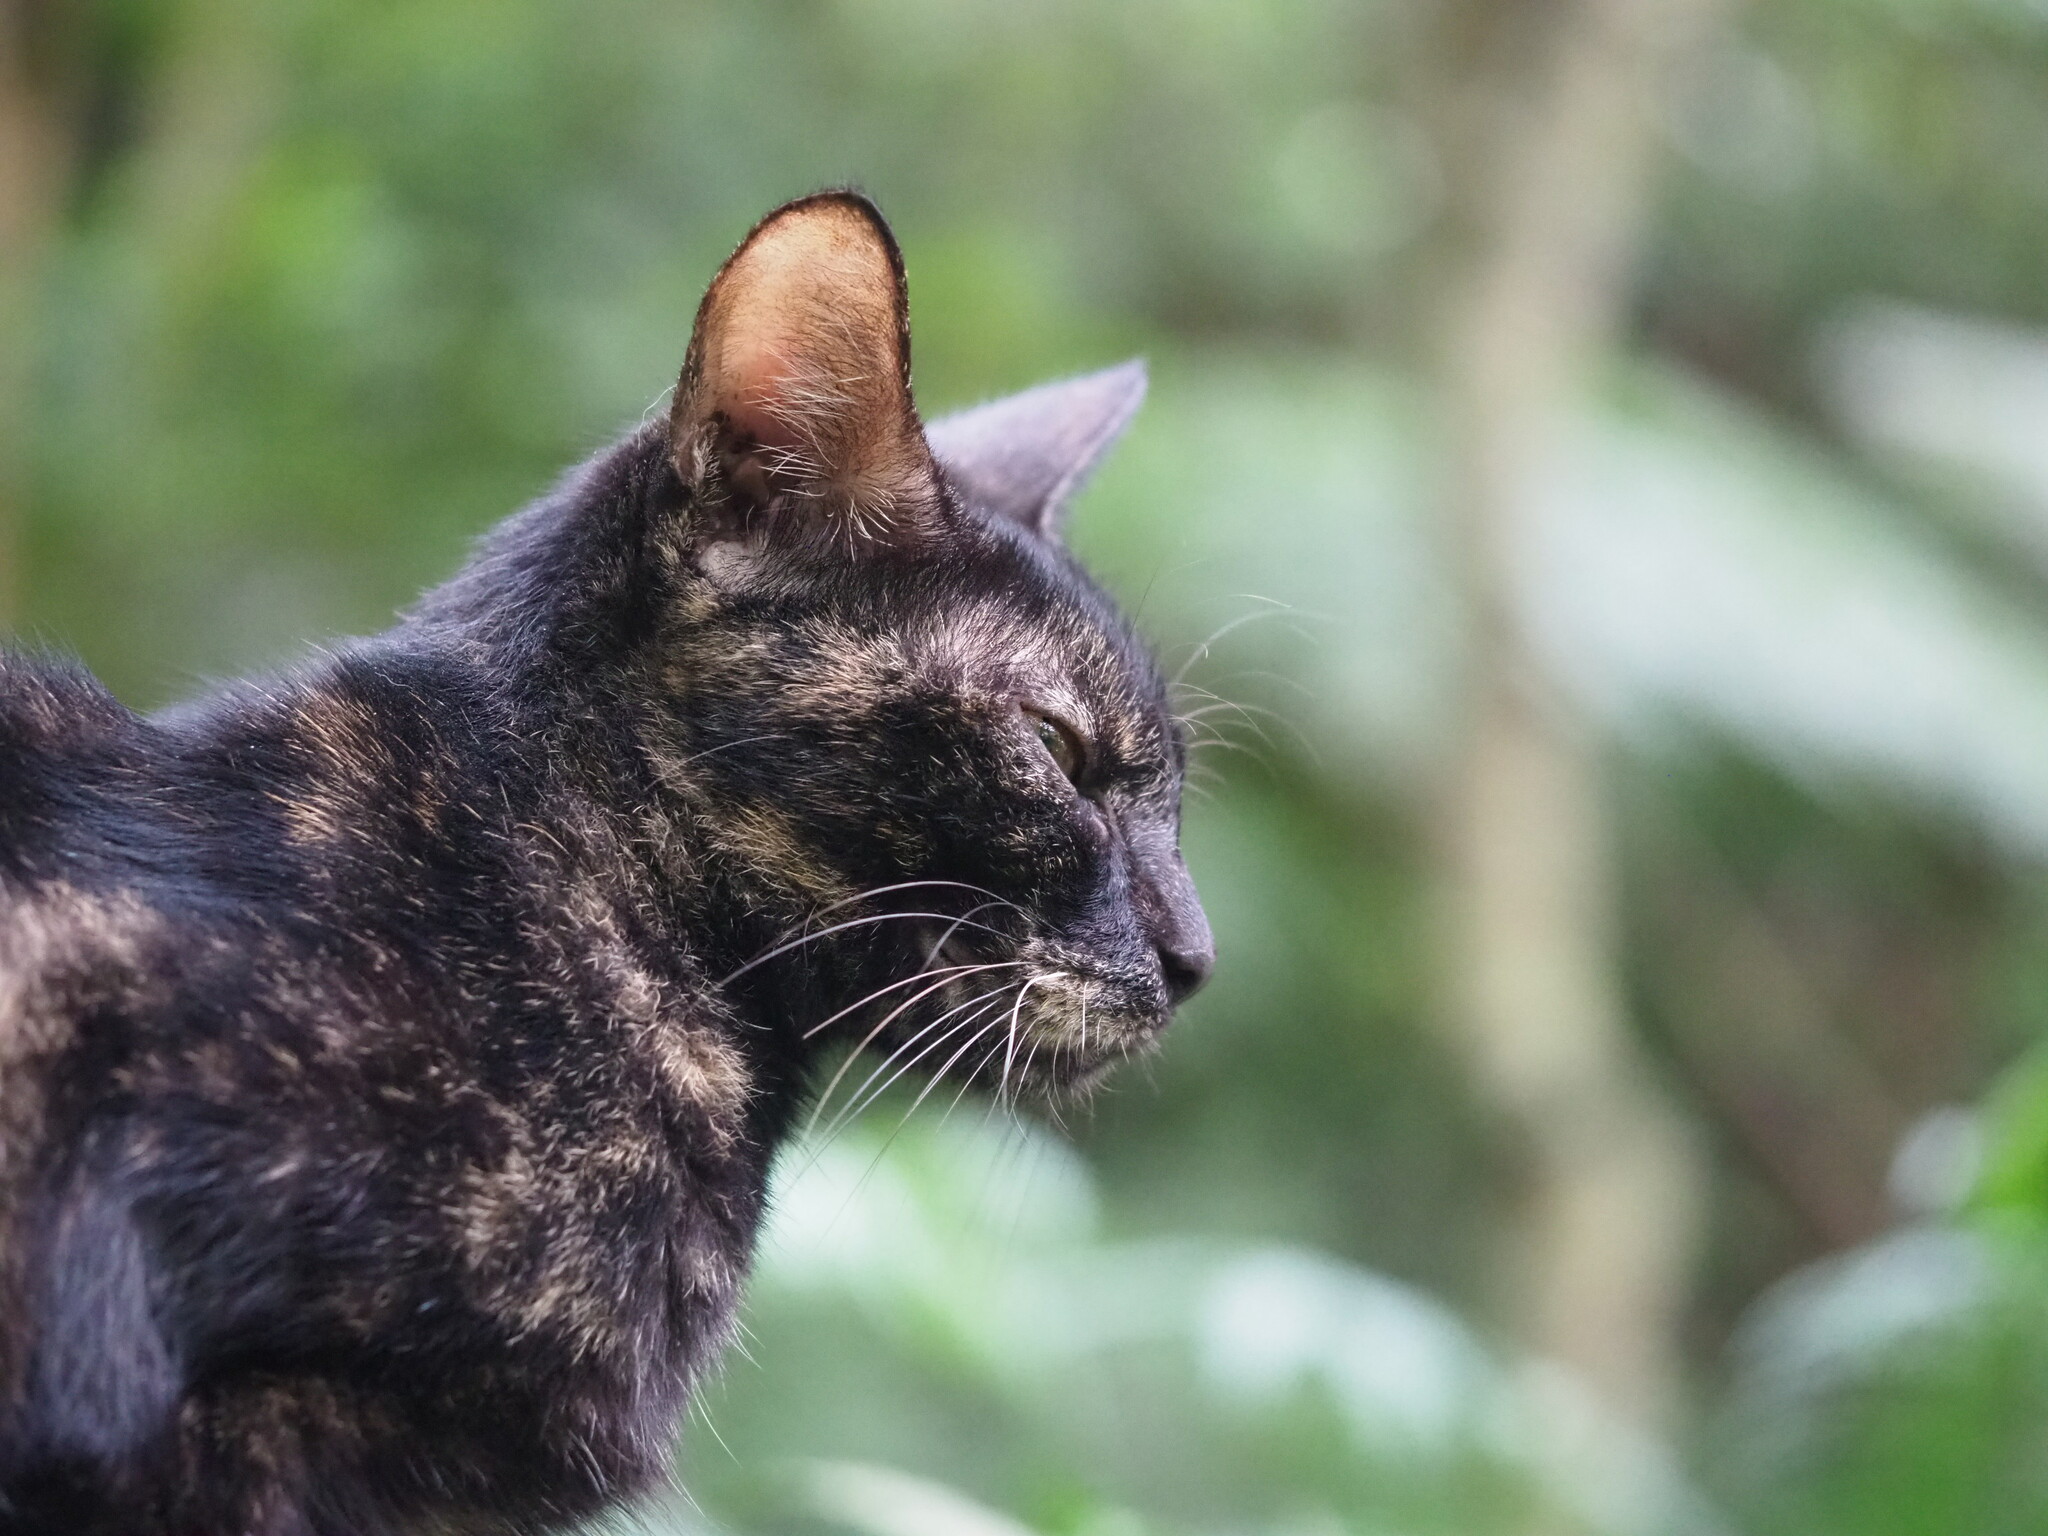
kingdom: Animalia
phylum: Chordata
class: Mammalia
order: Carnivora
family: Felidae
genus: Felis
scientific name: Felis catus
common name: Domestic cat
